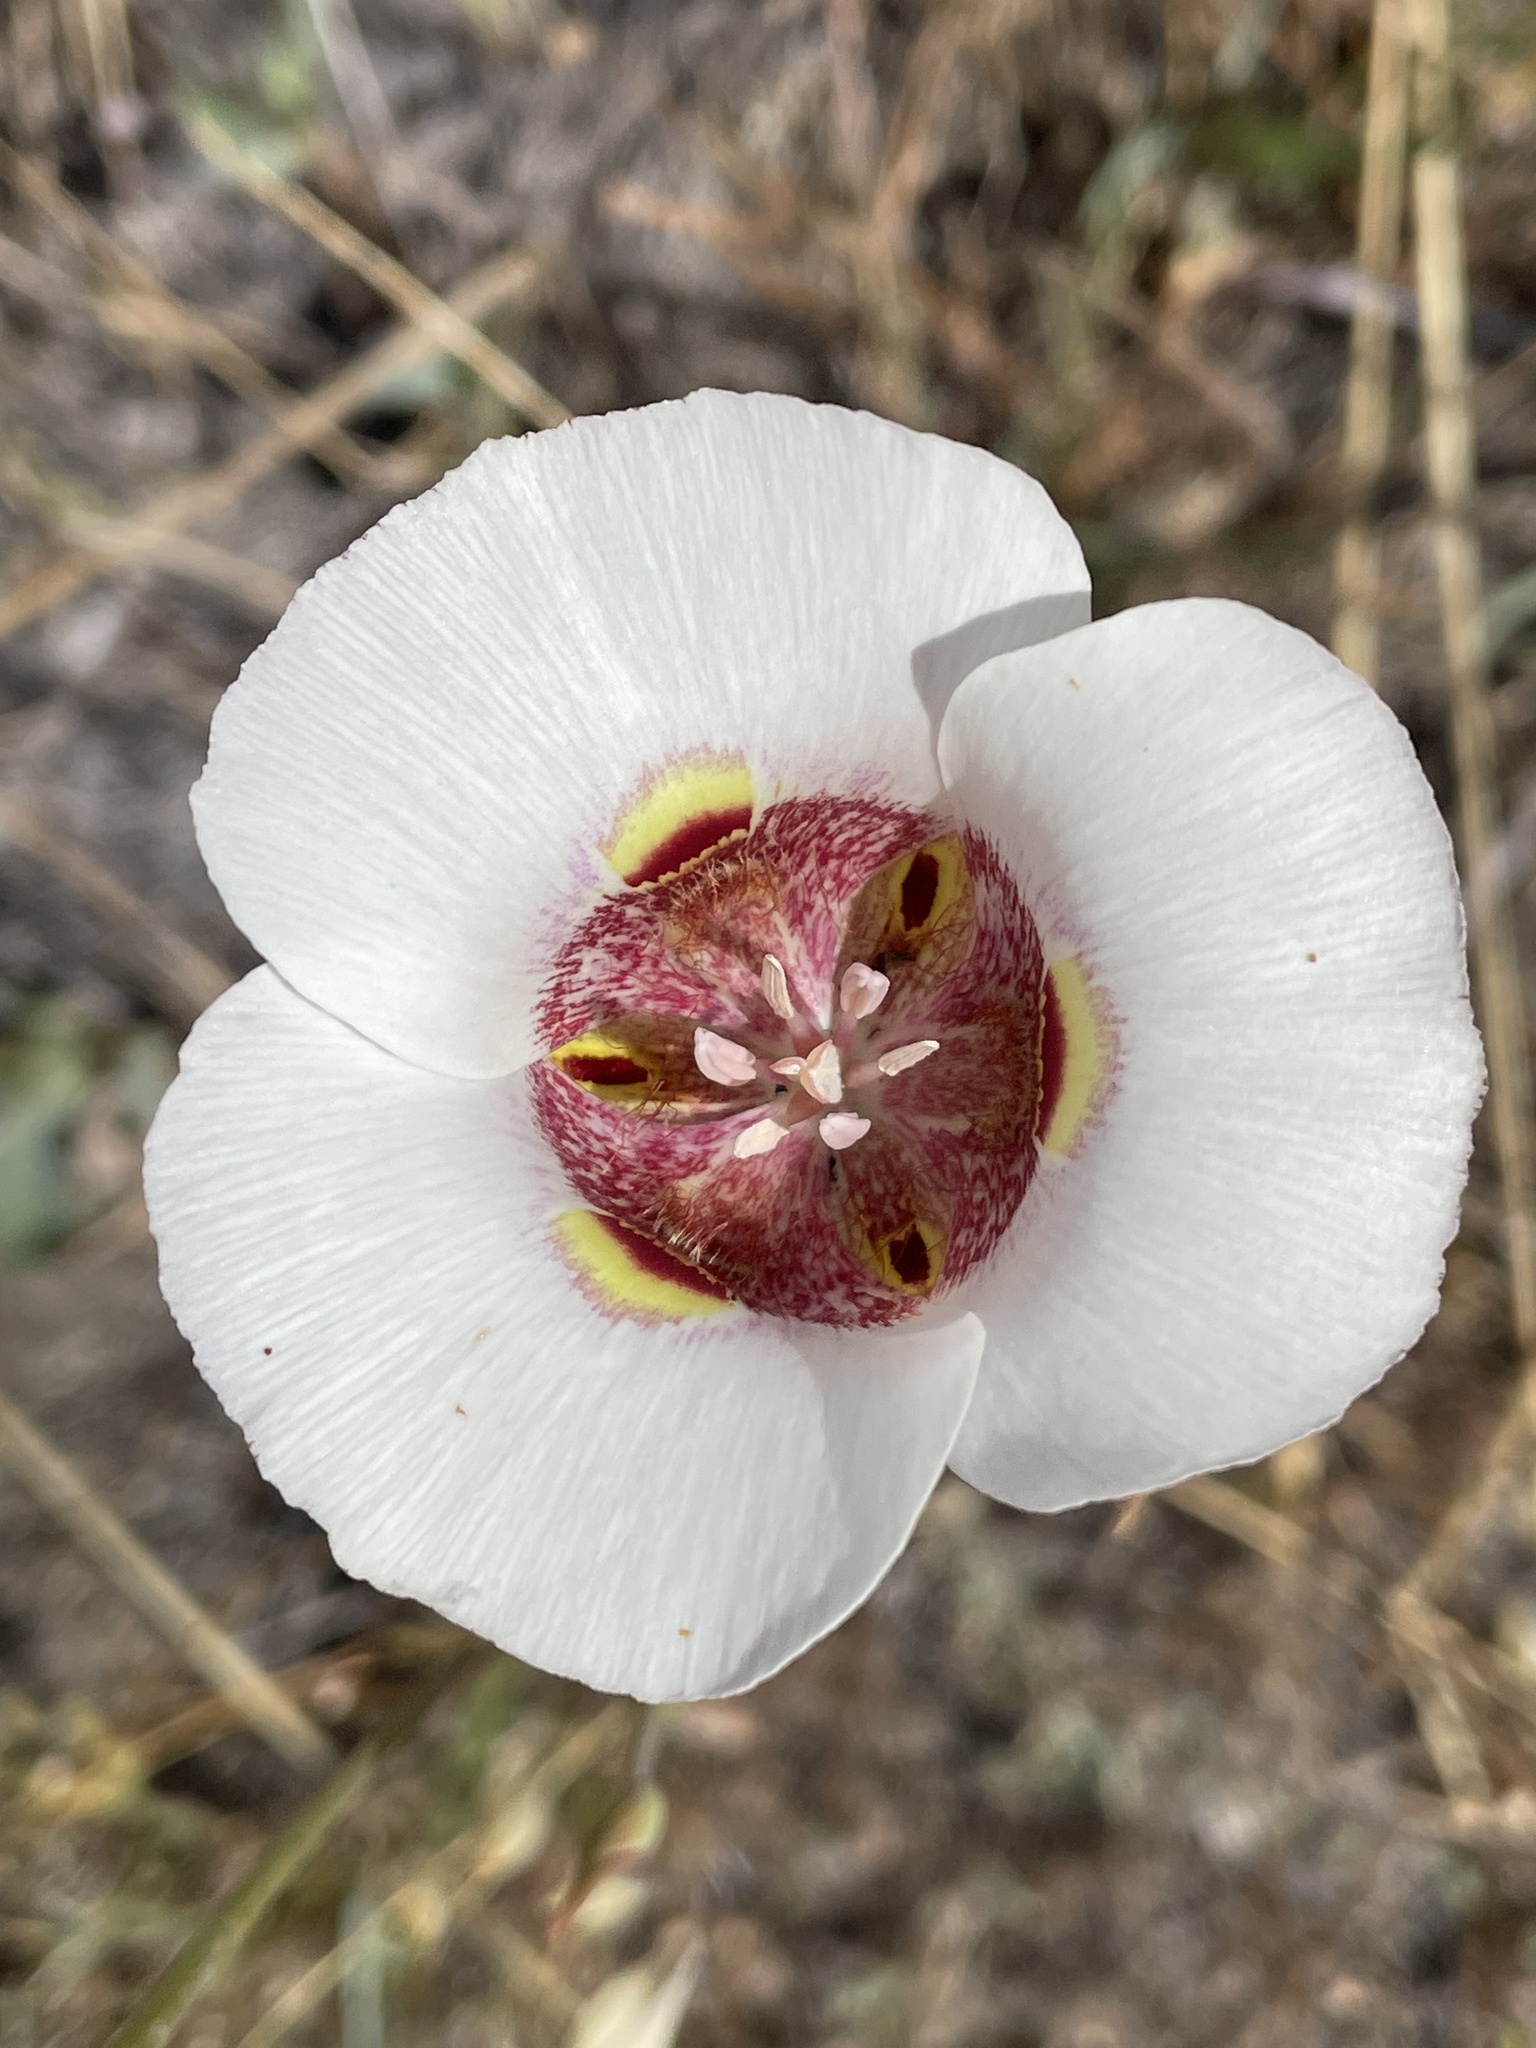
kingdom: Plantae
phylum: Tracheophyta
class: Liliopsida
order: Liliales
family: Liliaceae
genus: Calochortus
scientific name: Calochortus argillosus
